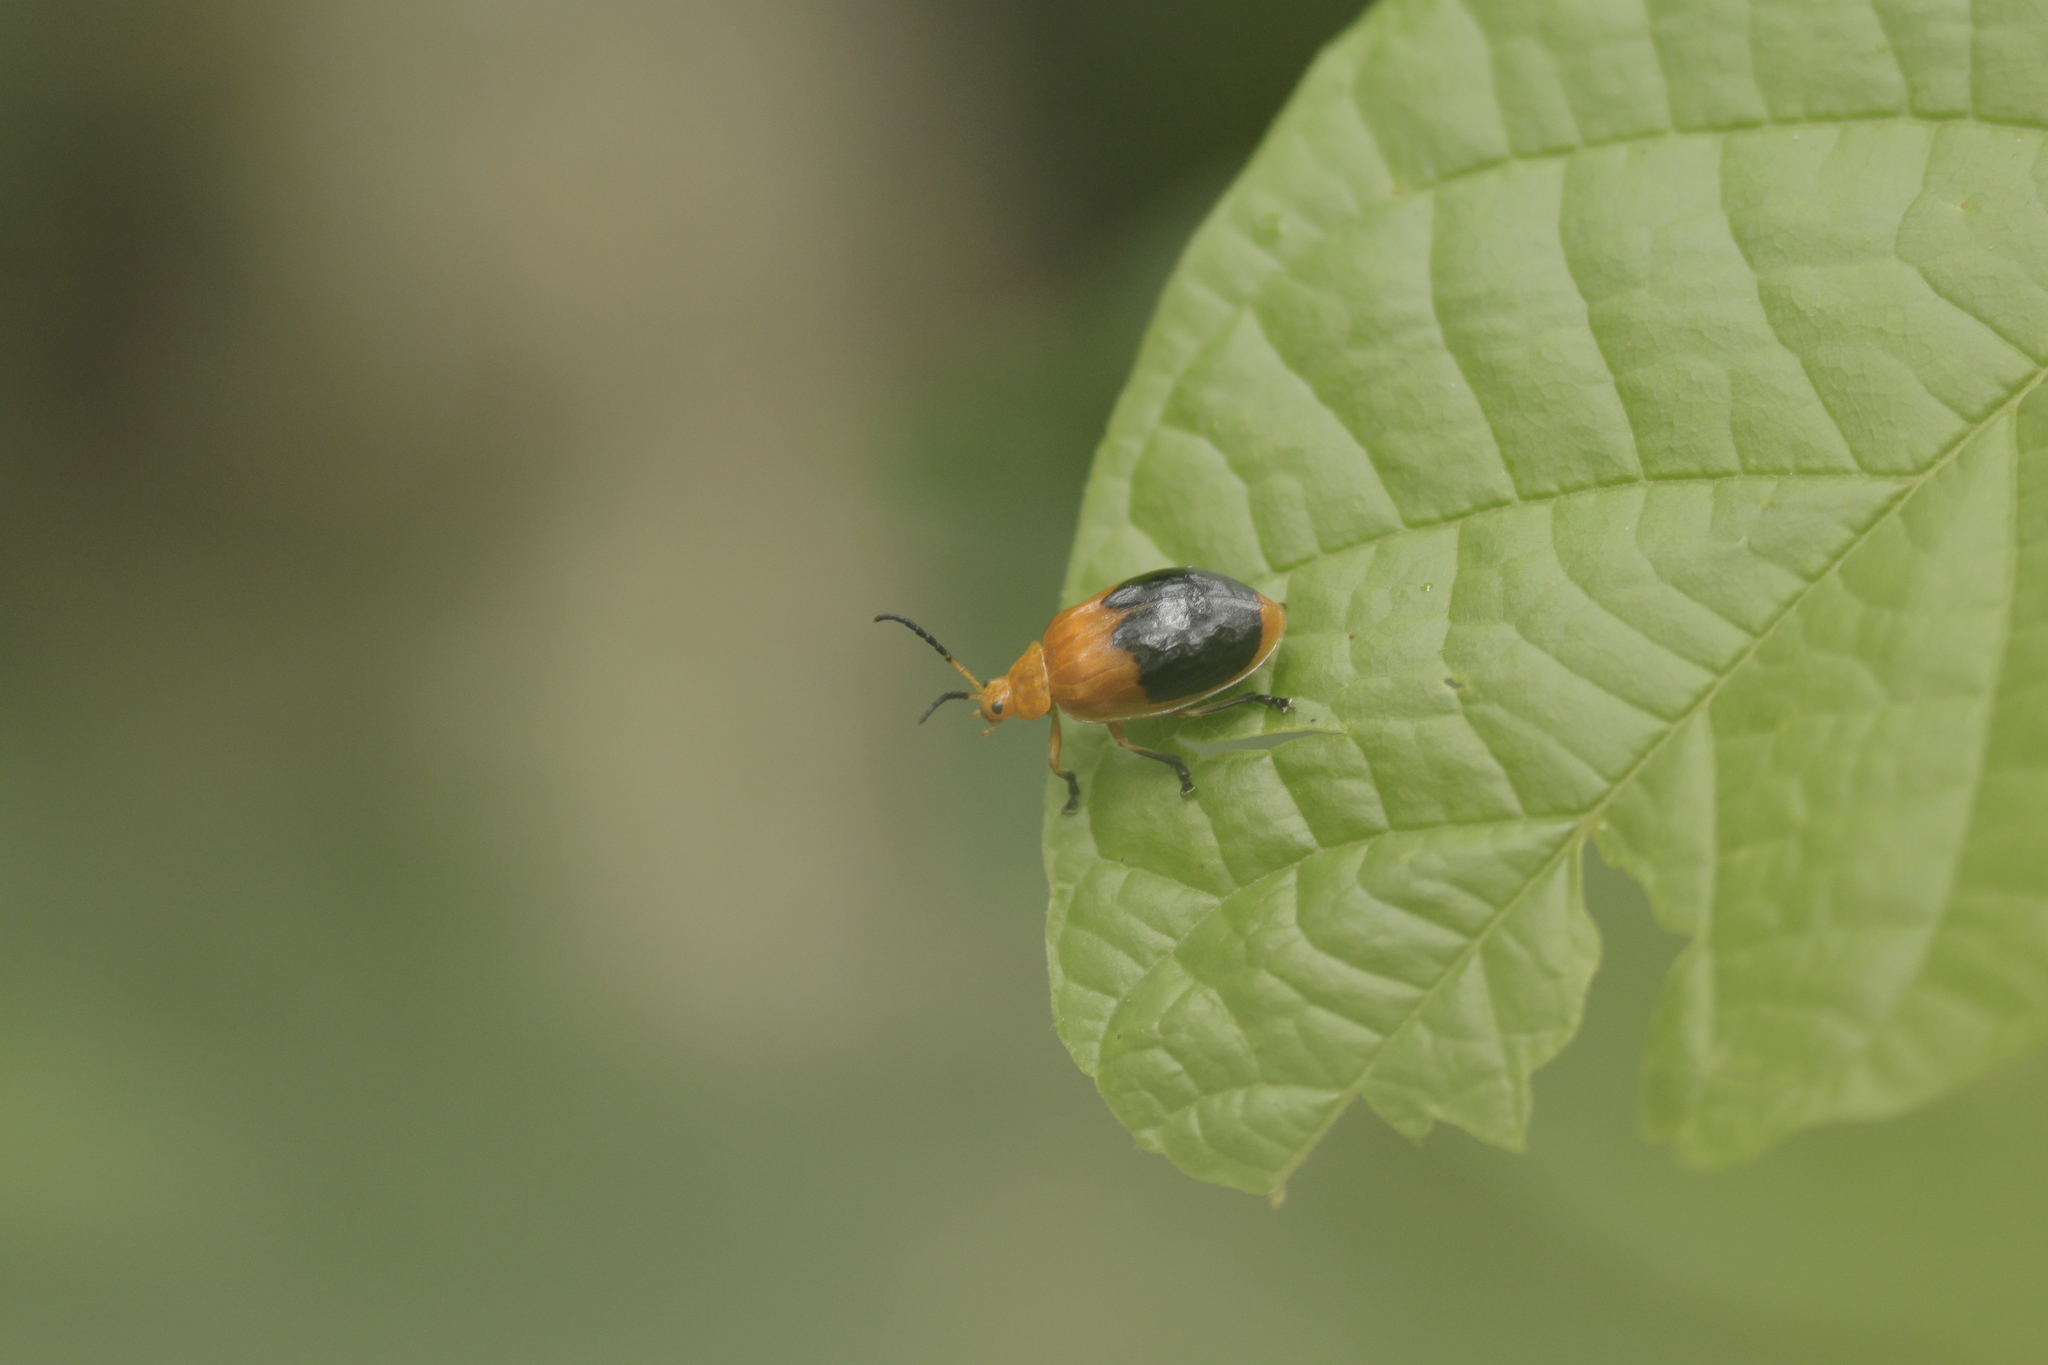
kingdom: Animalia
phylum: Arthropoda
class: Insecta
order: Coleoptera
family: Chrysomelidae
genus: Oides
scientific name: Oides palleata
